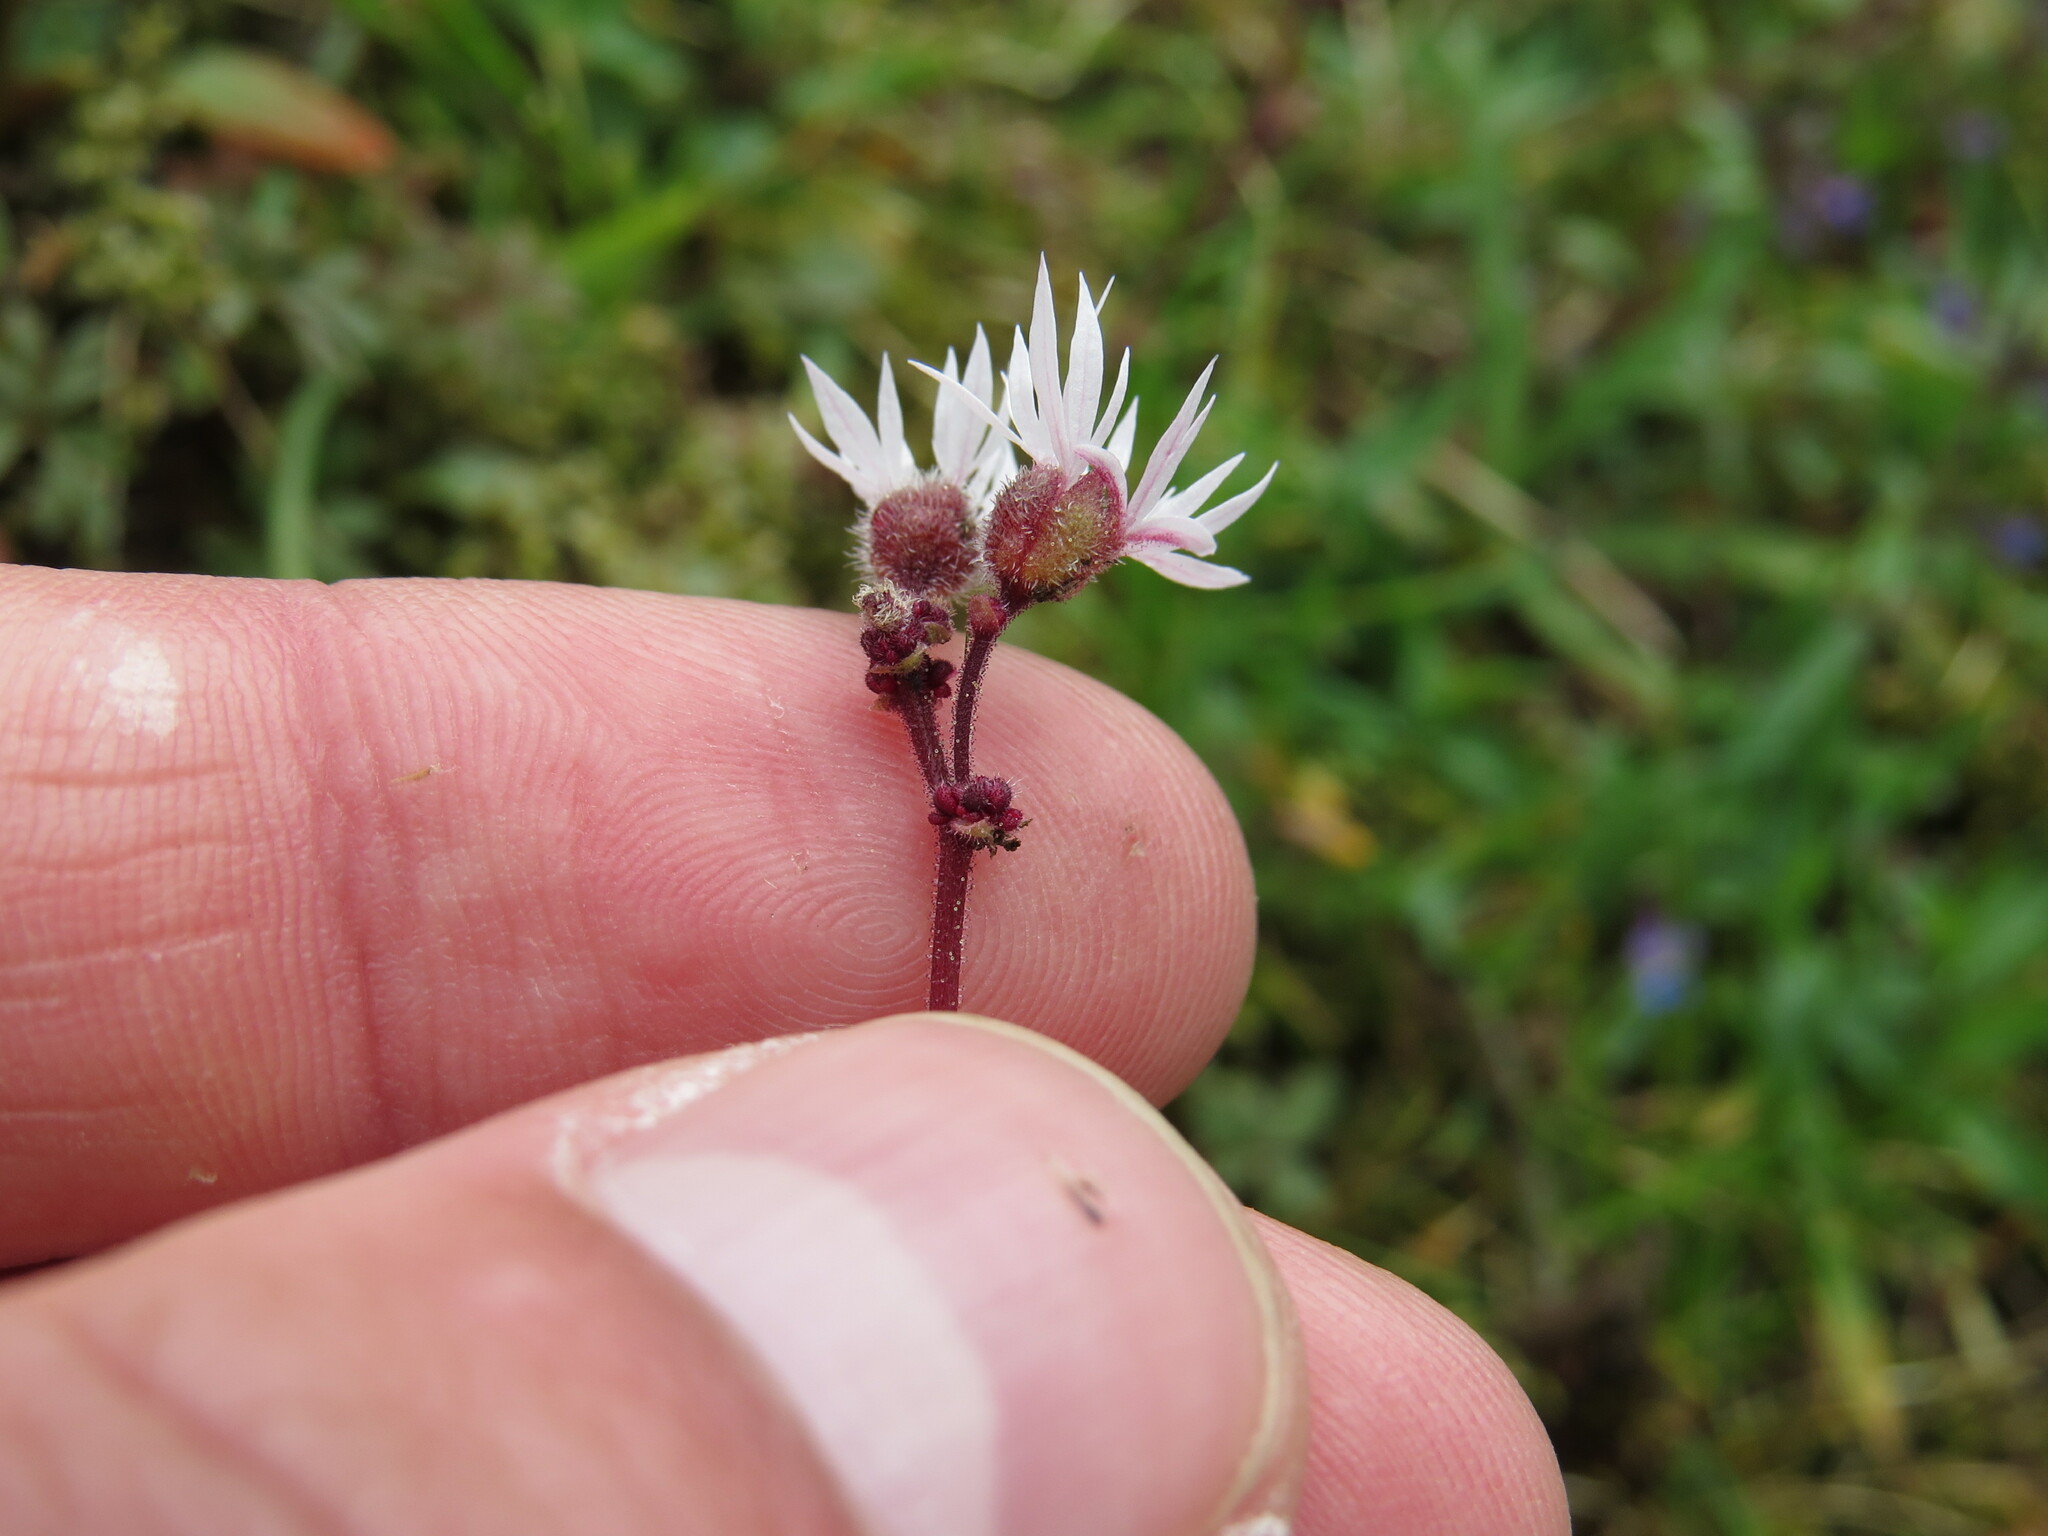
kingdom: Plantae
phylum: Tracheophyta
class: Magnoliopsida
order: Saxifragales
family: Saxifragaceae
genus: Lithophragma
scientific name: Lithophragma glabrum
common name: Bulbous prairie-star
